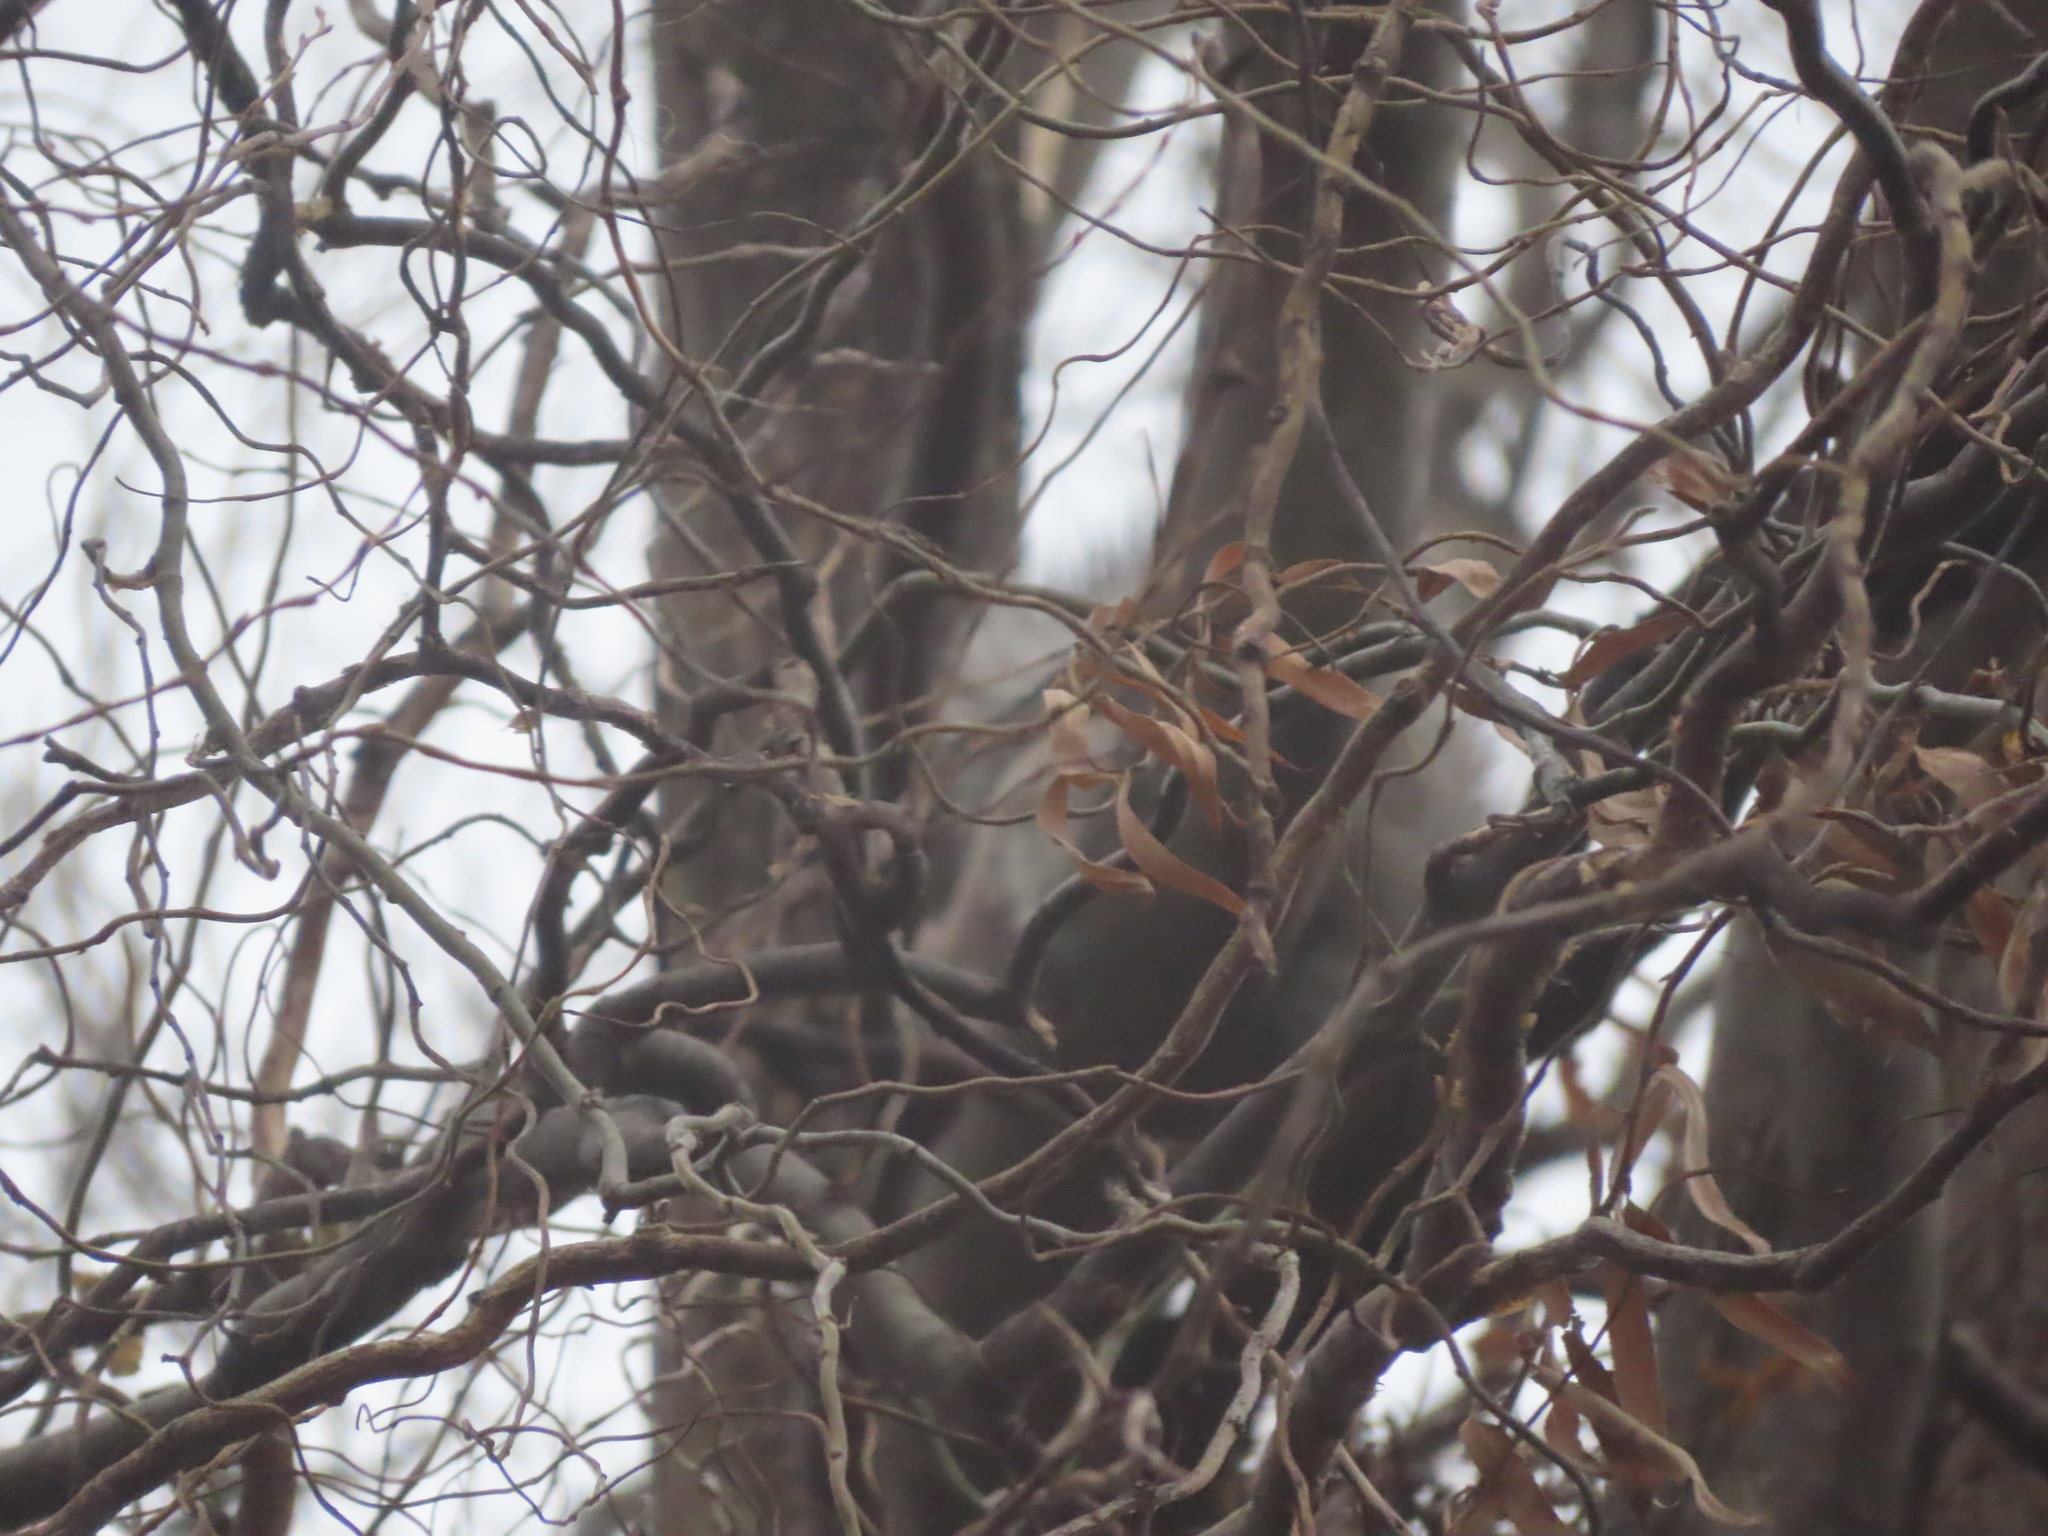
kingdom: Animalia
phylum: Chordata
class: Mammalia
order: Rodentia
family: Sciuridae
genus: Sciurus
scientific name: Sciurus carolinensis
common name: Eastern gray squirrel
